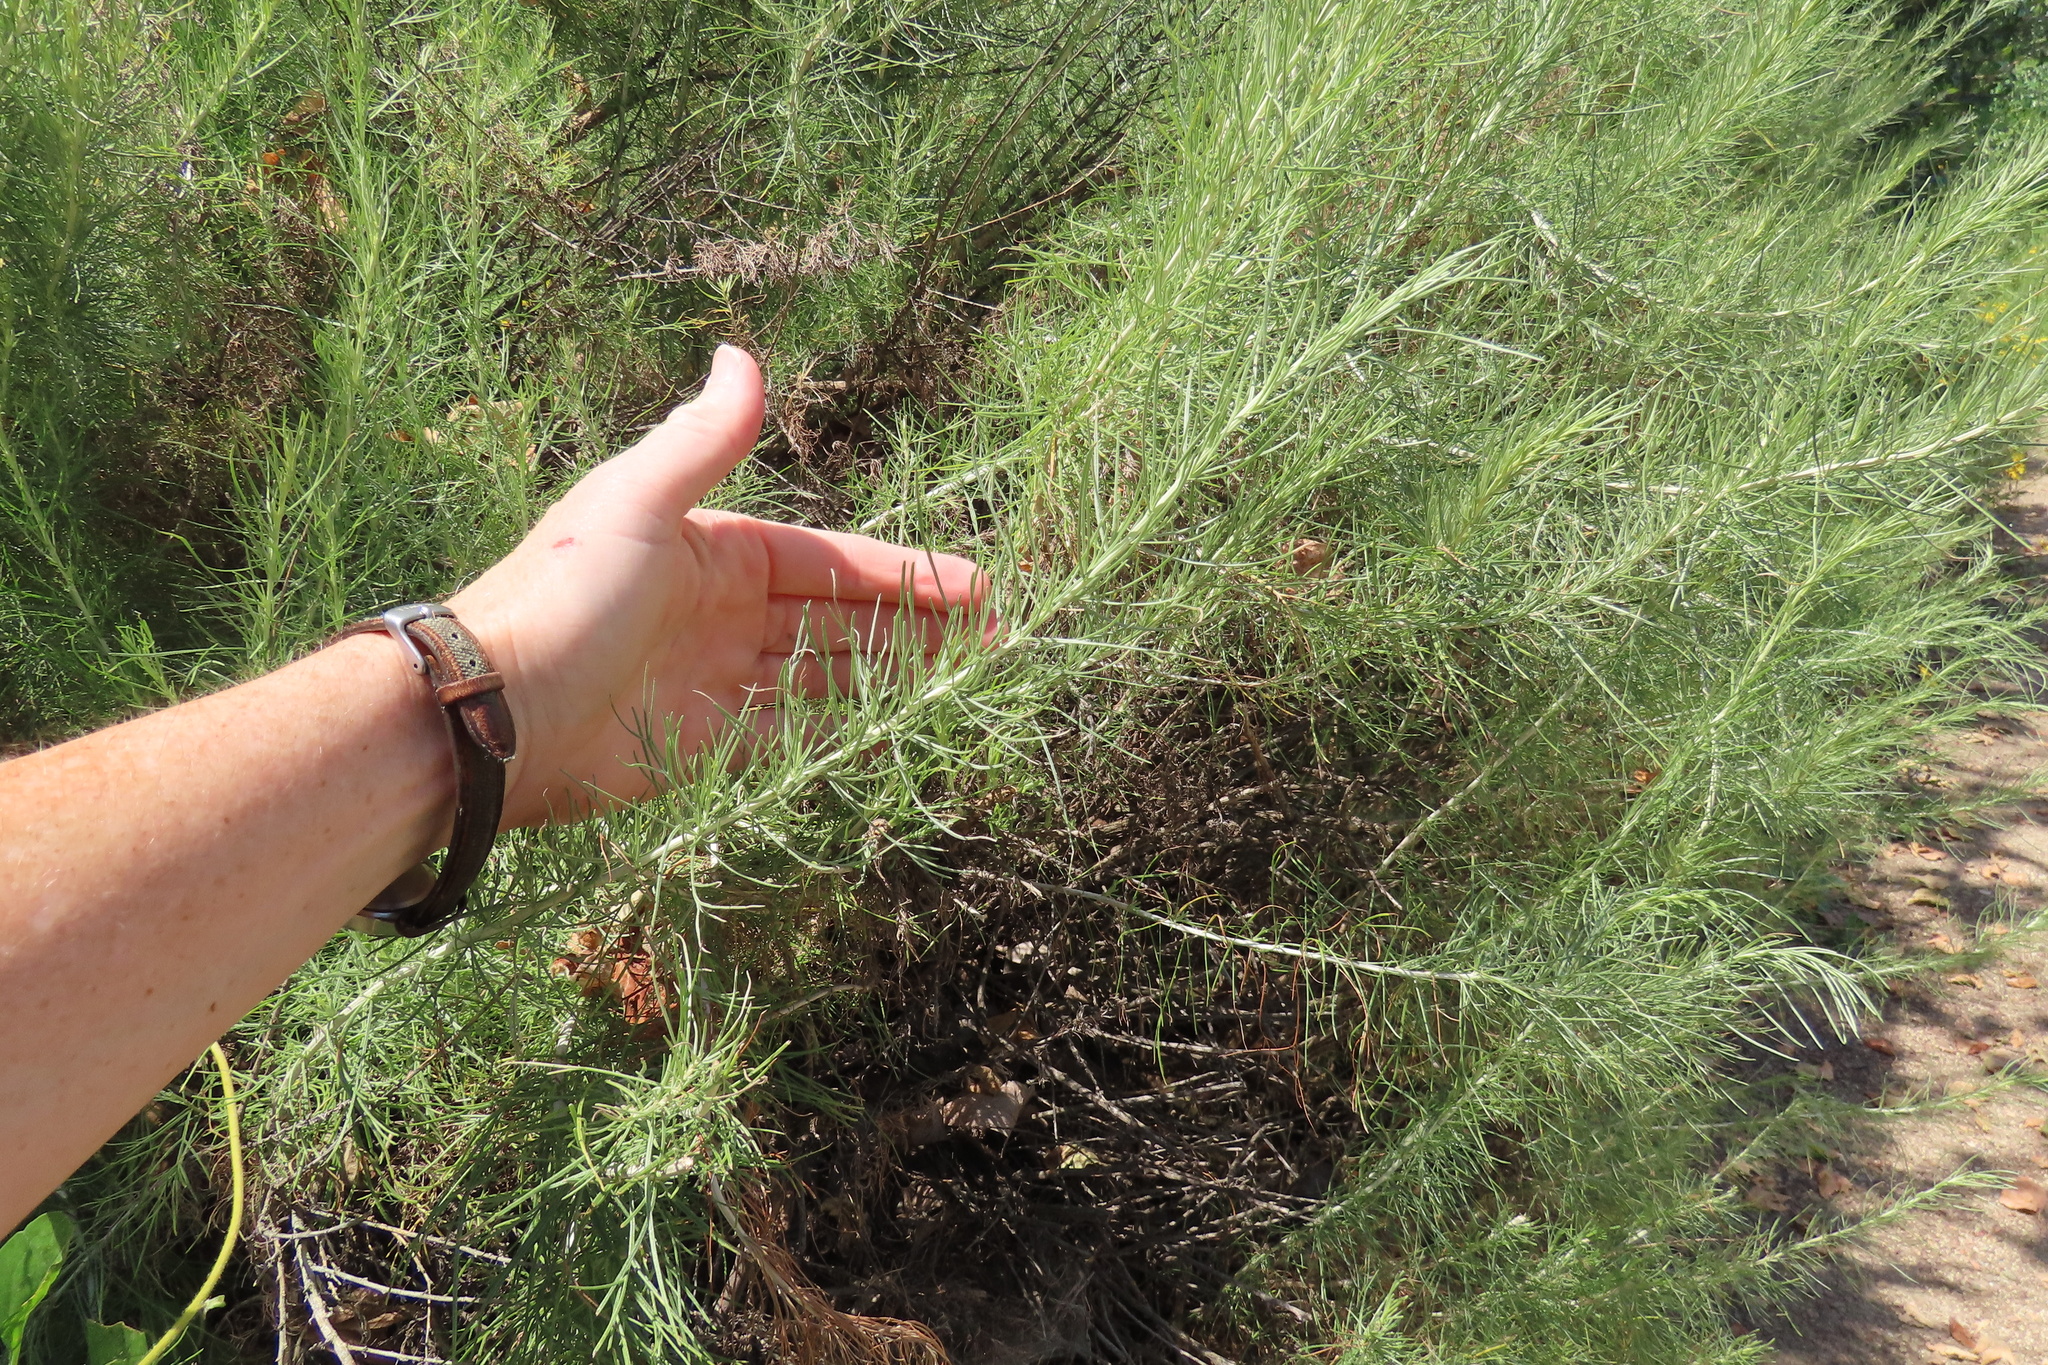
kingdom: Plantae
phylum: Tracheophyta
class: Magnoliopsida
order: Asterales
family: Asteraceae
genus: Artemisia
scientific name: Artemisia californica
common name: California sagebrush
